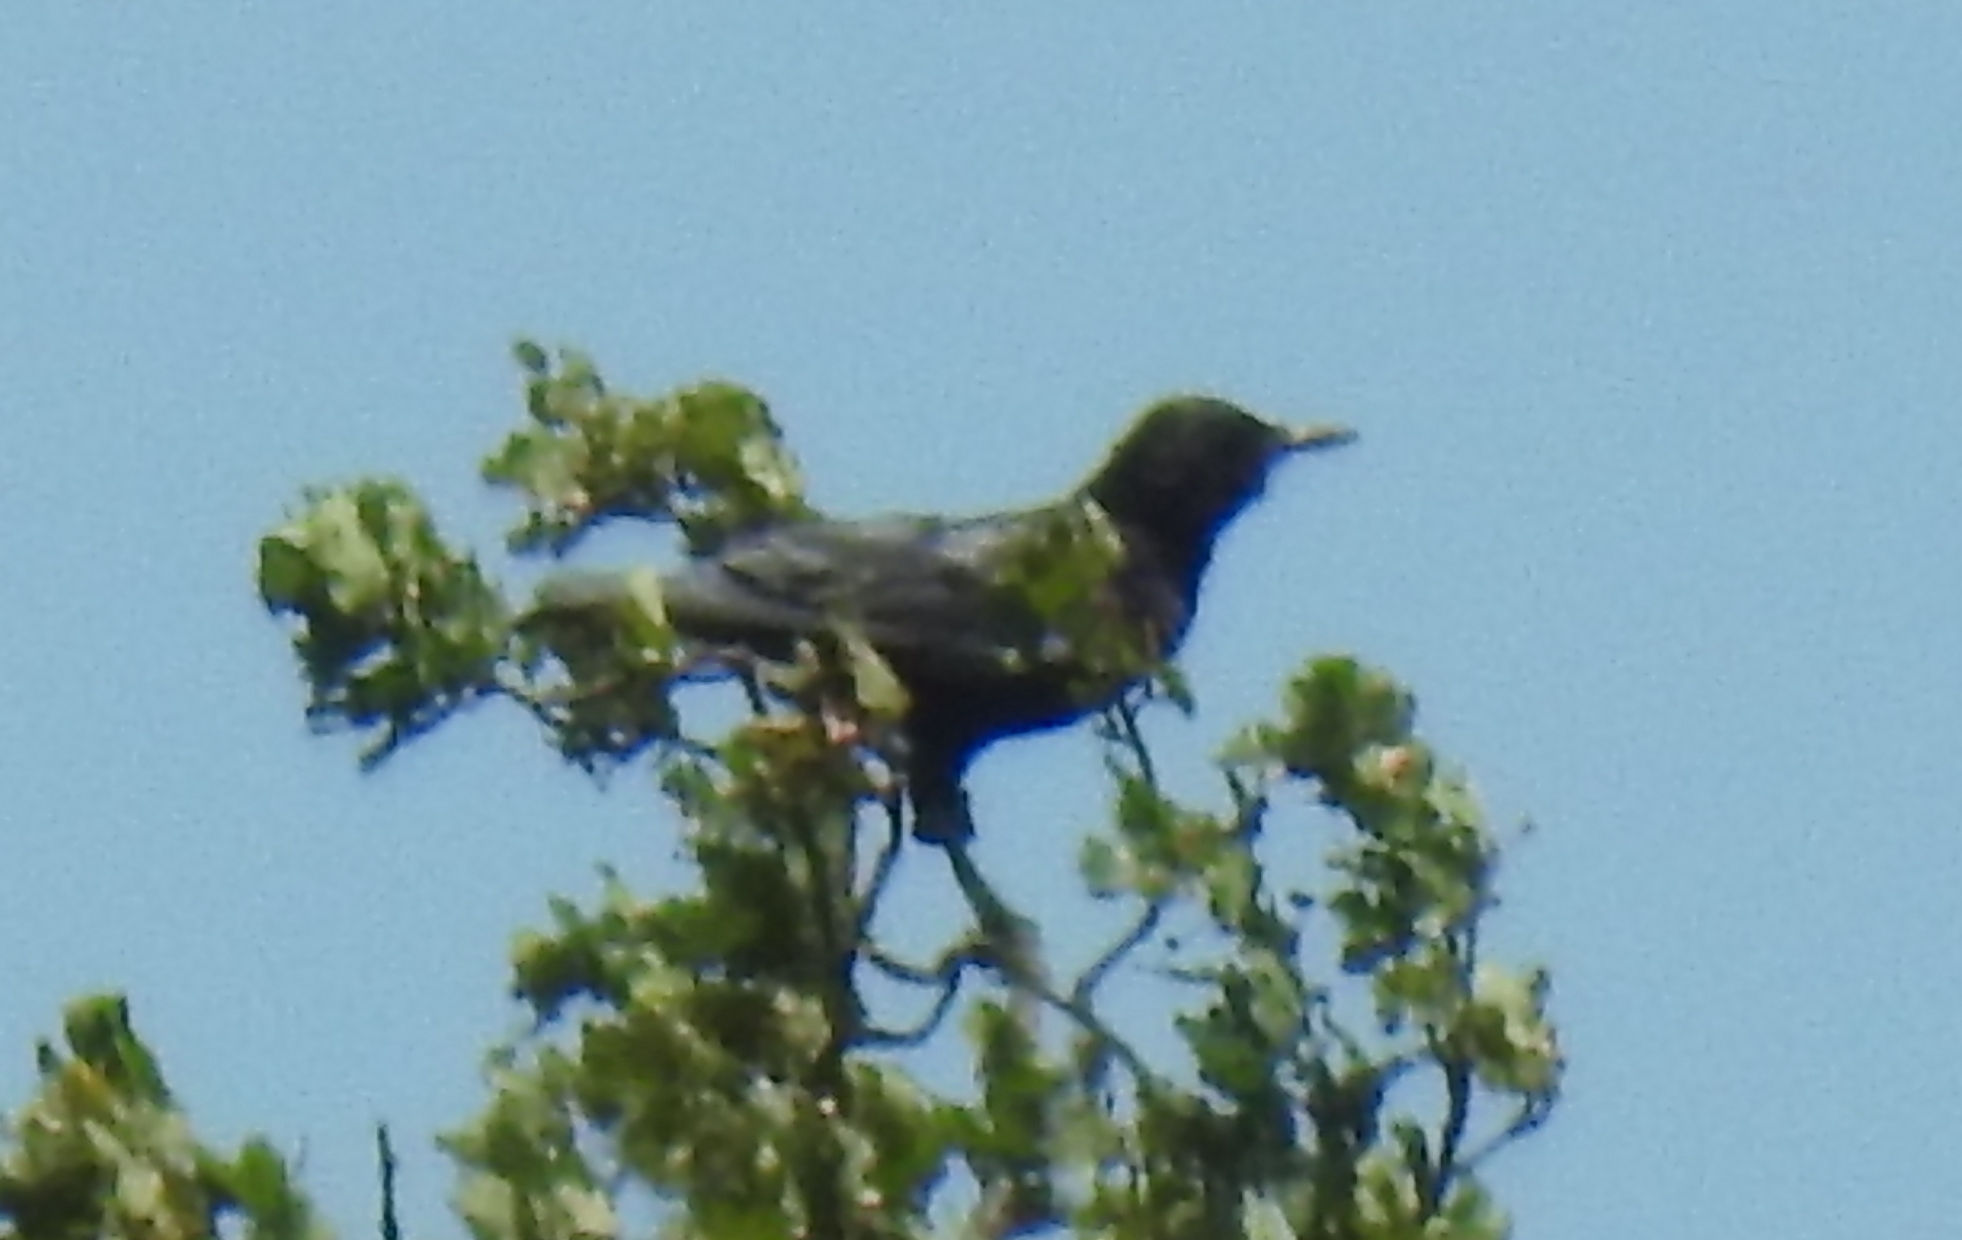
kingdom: Animalia
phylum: Chordata
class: Aves
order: Passeriformes
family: Corvidae
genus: Corvus
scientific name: Corvus capensis
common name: Cape crow
